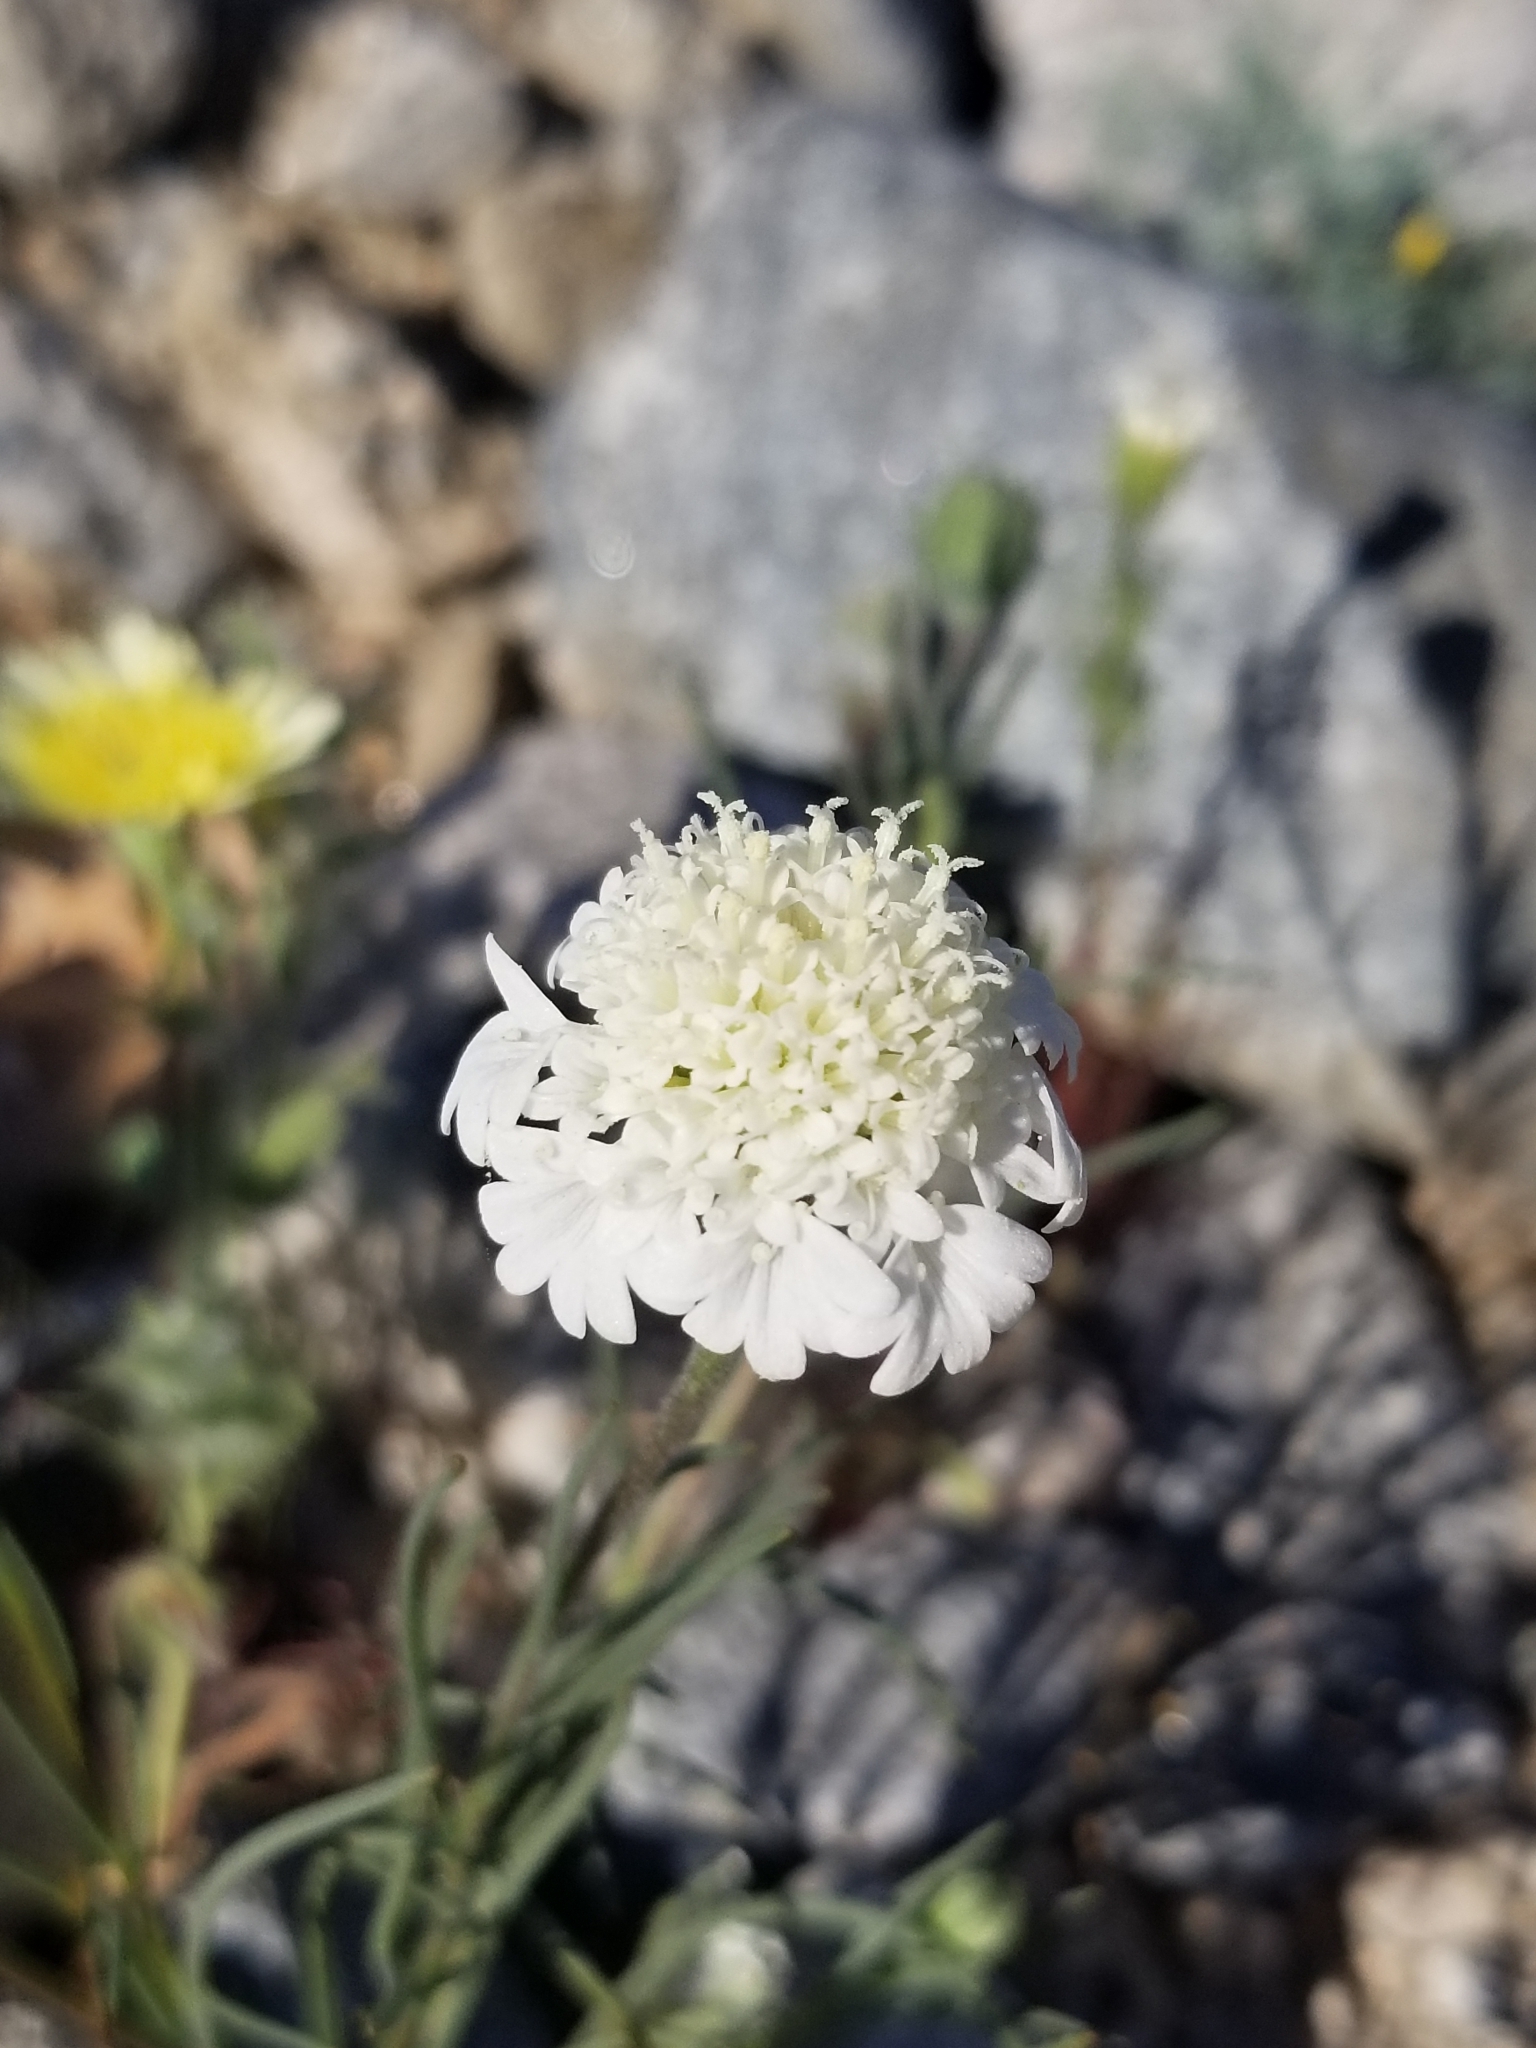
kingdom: Plantae
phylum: Tracheophyta
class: Magnoliopsida
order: Asterales
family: Asteraceae
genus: Chaenactis
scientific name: Chaenactis fremontii
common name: Fremont pincushion
